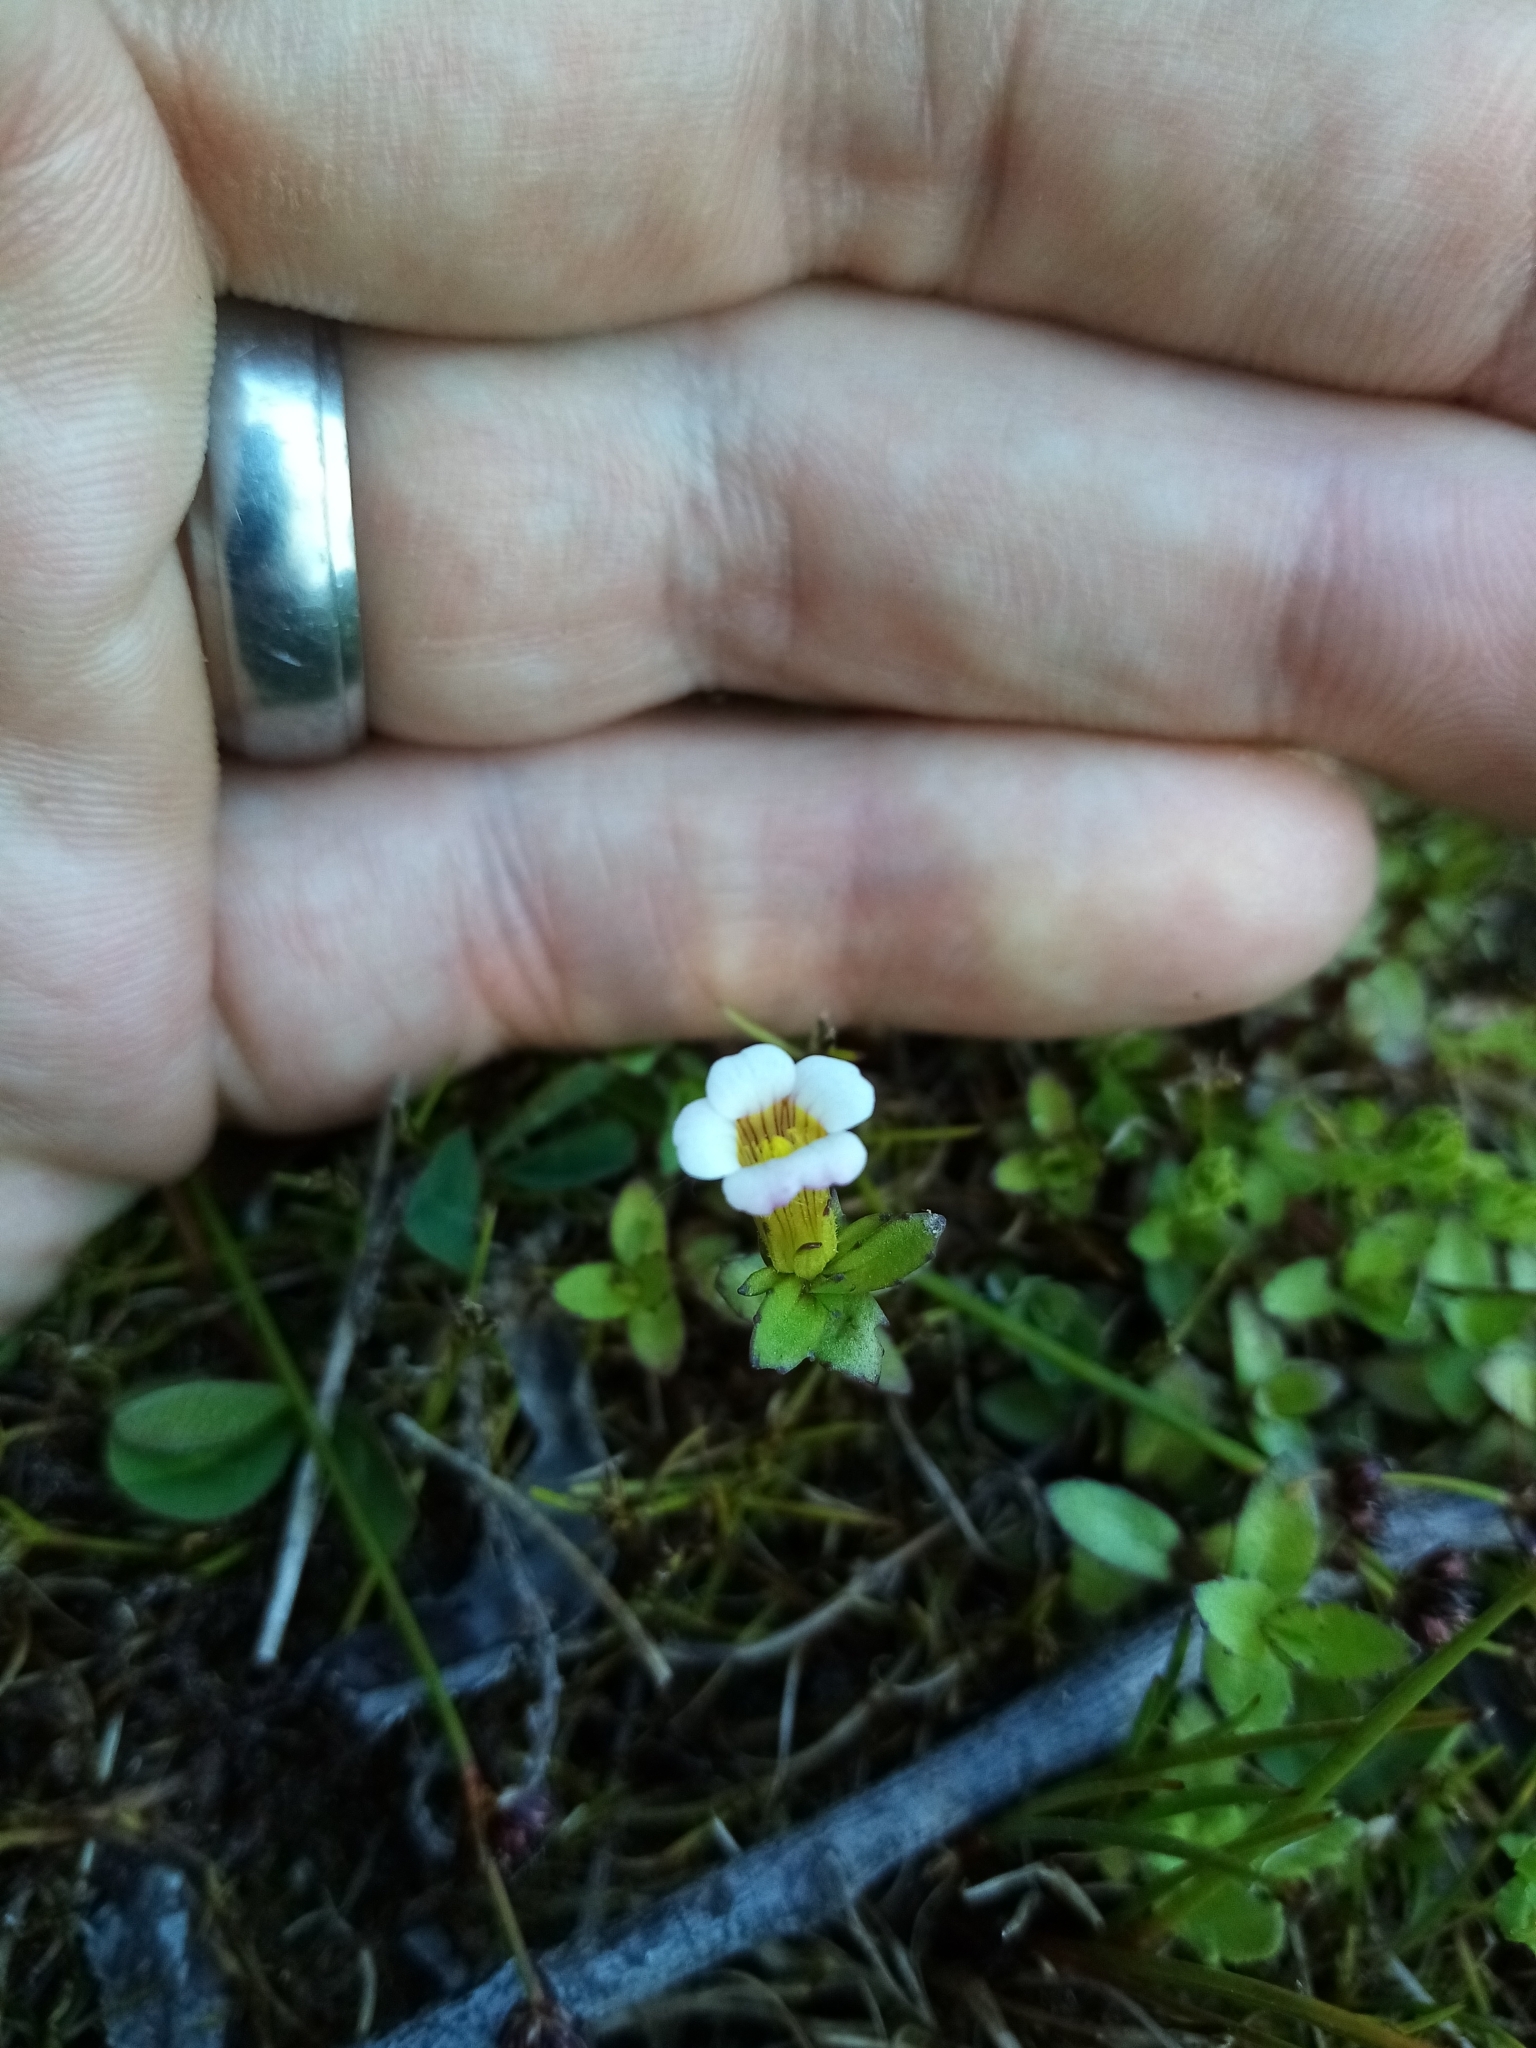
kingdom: Plantae
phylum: Tracheophyta
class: Magnoliopsida
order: Lamiales
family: Plantaginaceae
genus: Gratiola
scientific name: Gratiola sexdentata
